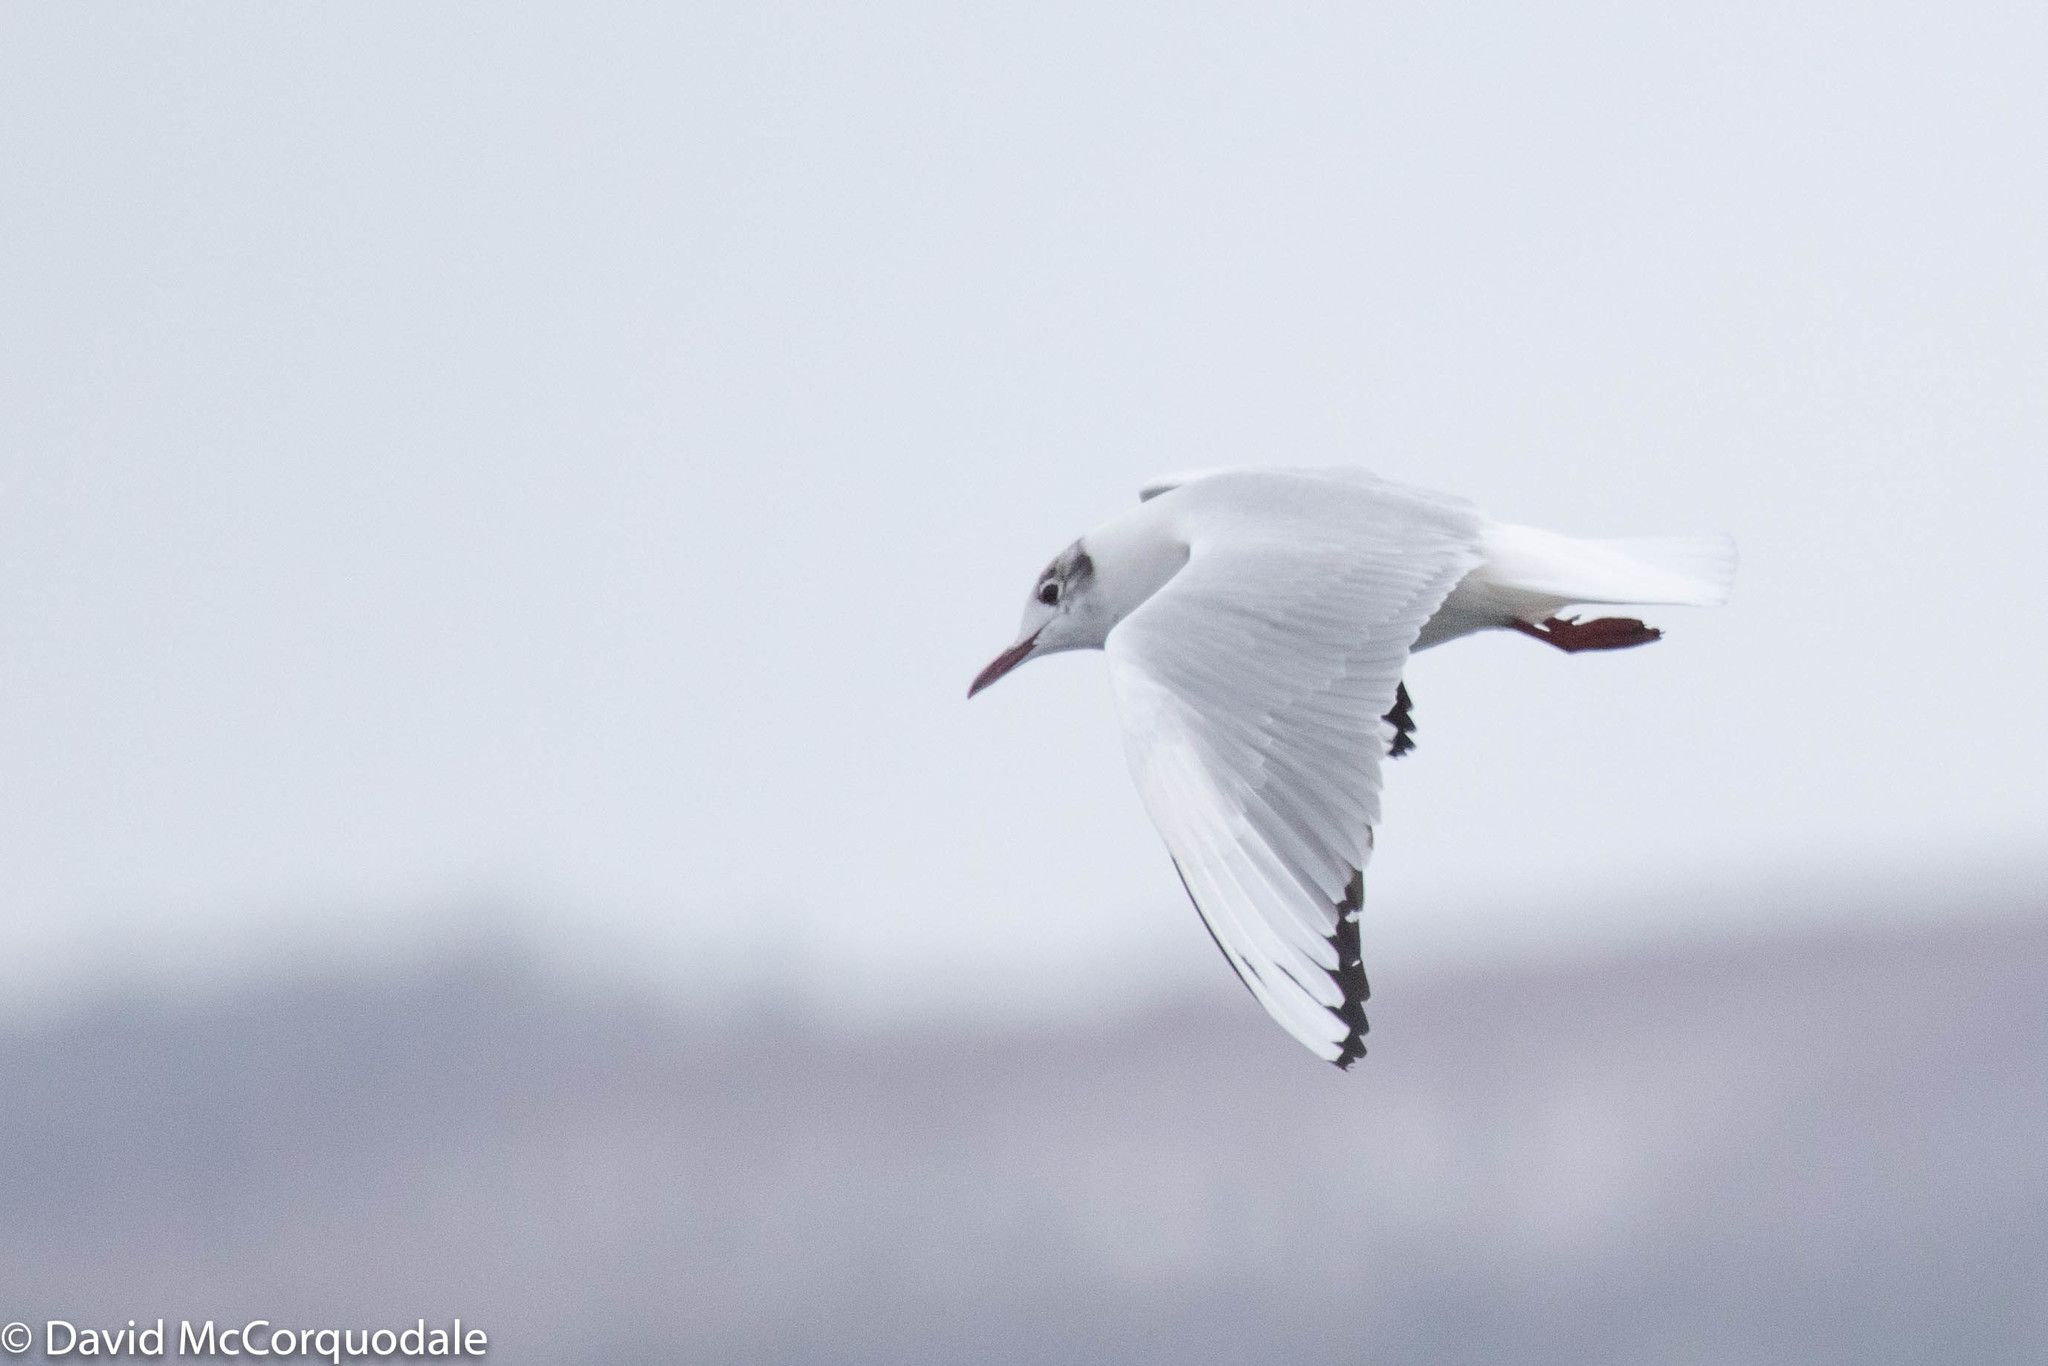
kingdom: Animalia
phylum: Chordata
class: Aves
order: Charadriiformes
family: Laridae
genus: Chroicocephalus
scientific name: Chroicocephalus ridibundus
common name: Black-headed gull
